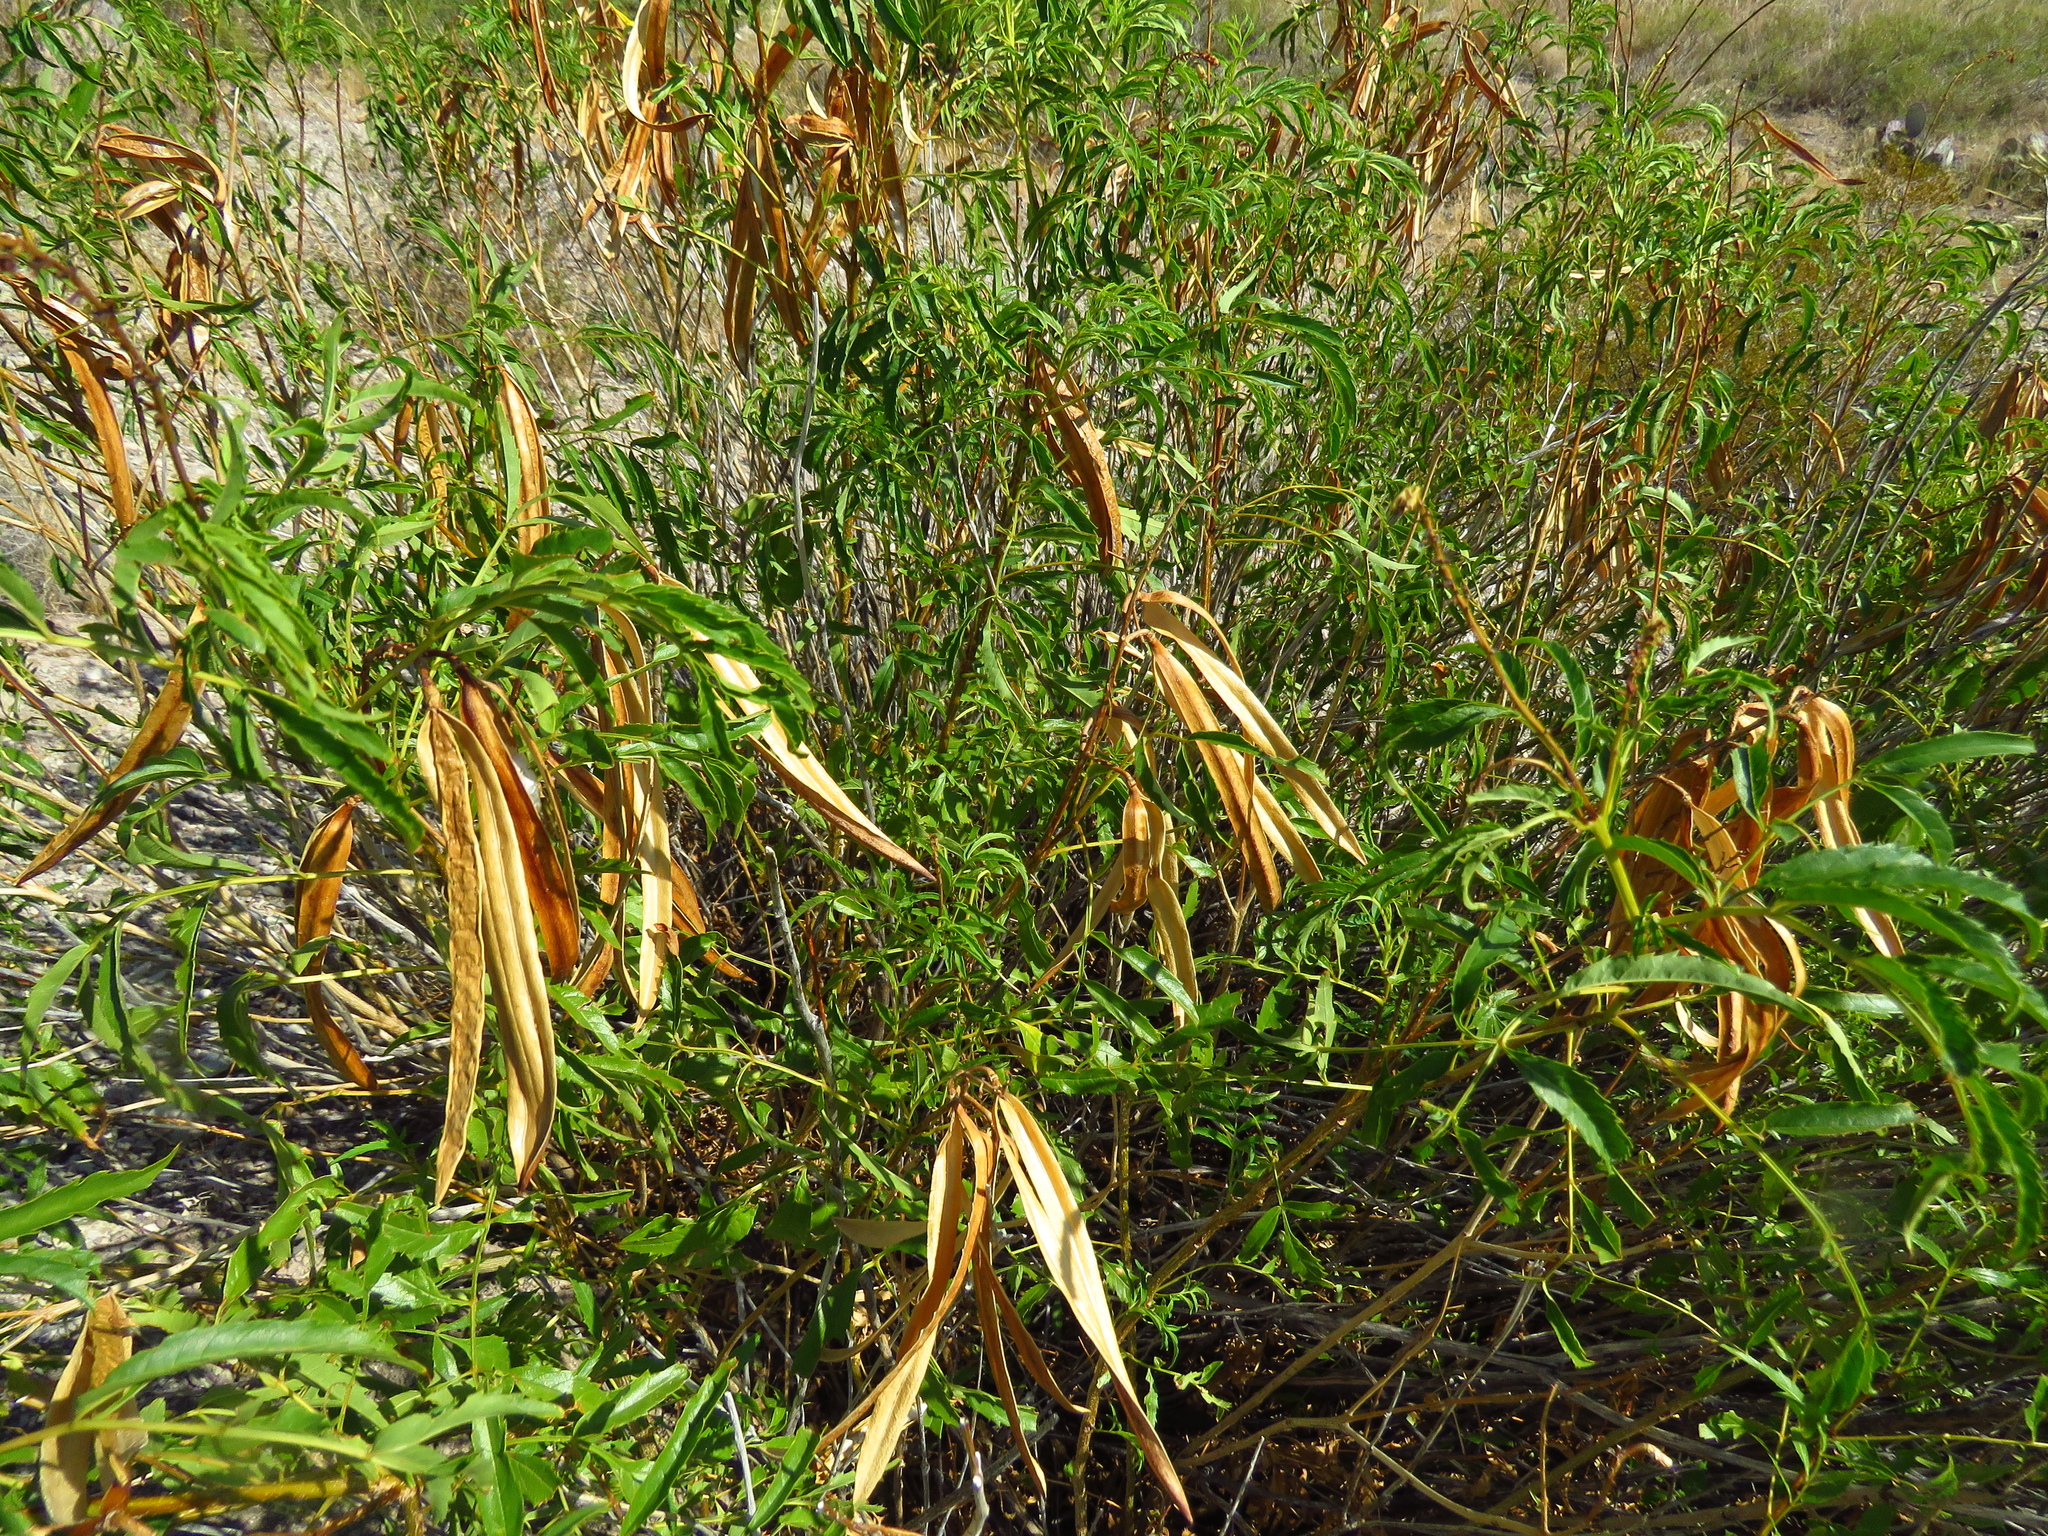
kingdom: Plantae
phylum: Tracheophyta
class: Magnoliopsida
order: Lamiales
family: Bignoniaceae
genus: Tecoma
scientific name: Tecoma stans
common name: Yellow trumpetbush
